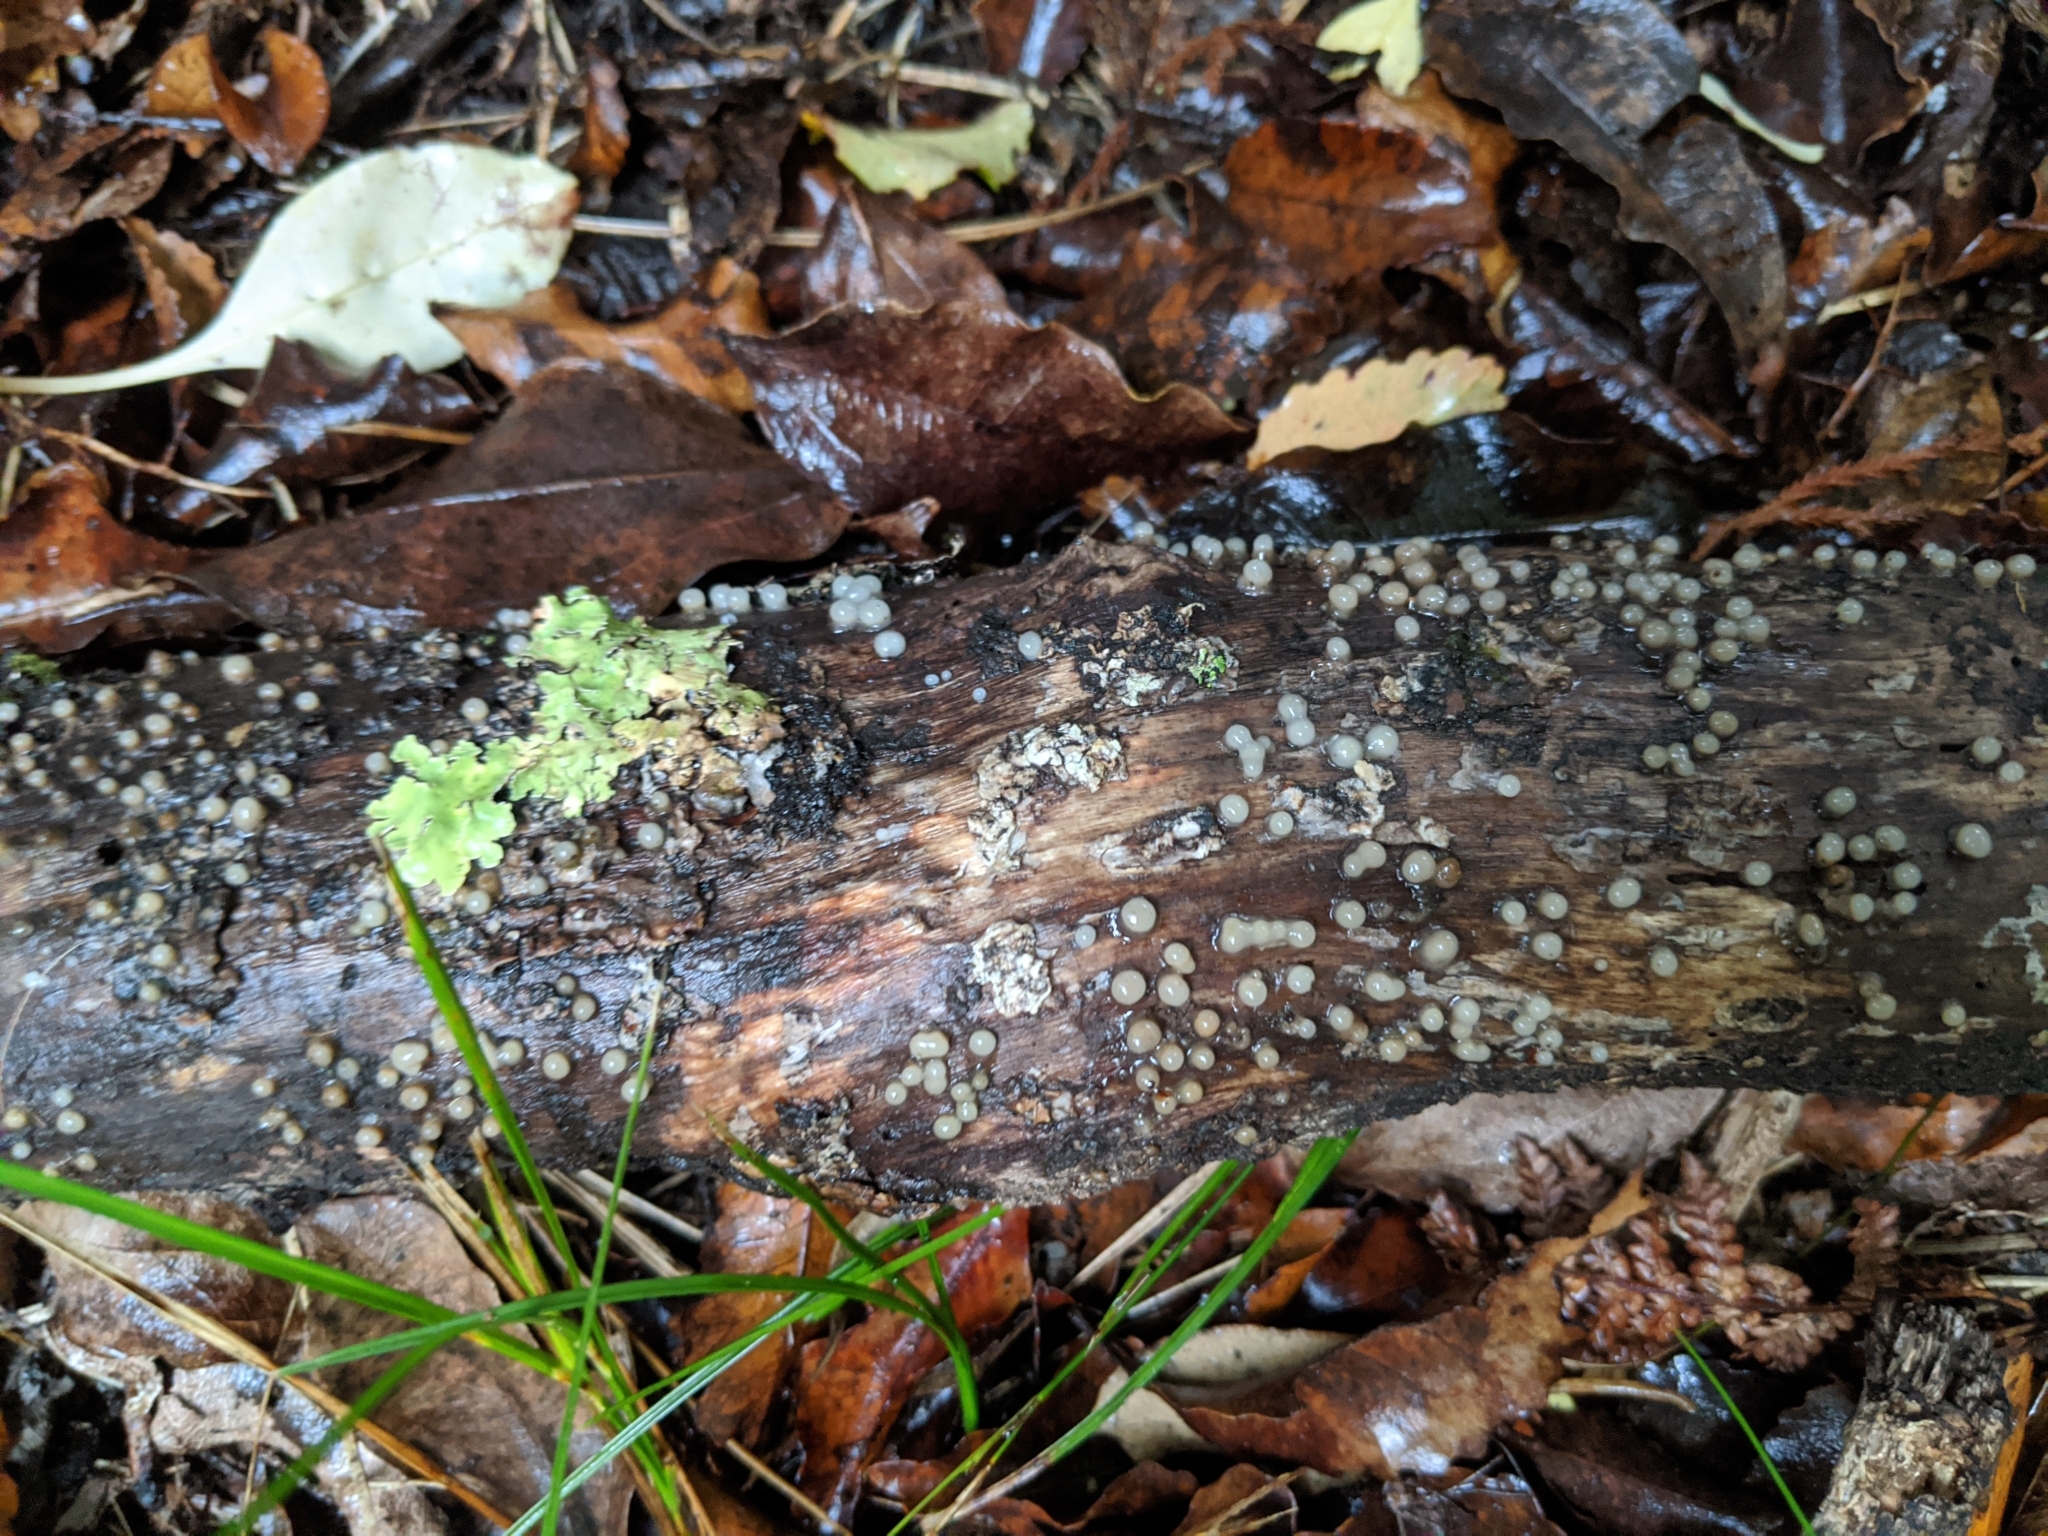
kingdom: Fungi
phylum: Basidiomycota
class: Atractiellomycetes
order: Atractiellales
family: Phleogenaceae
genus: Helicogloea
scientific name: Helicogloea compressa
